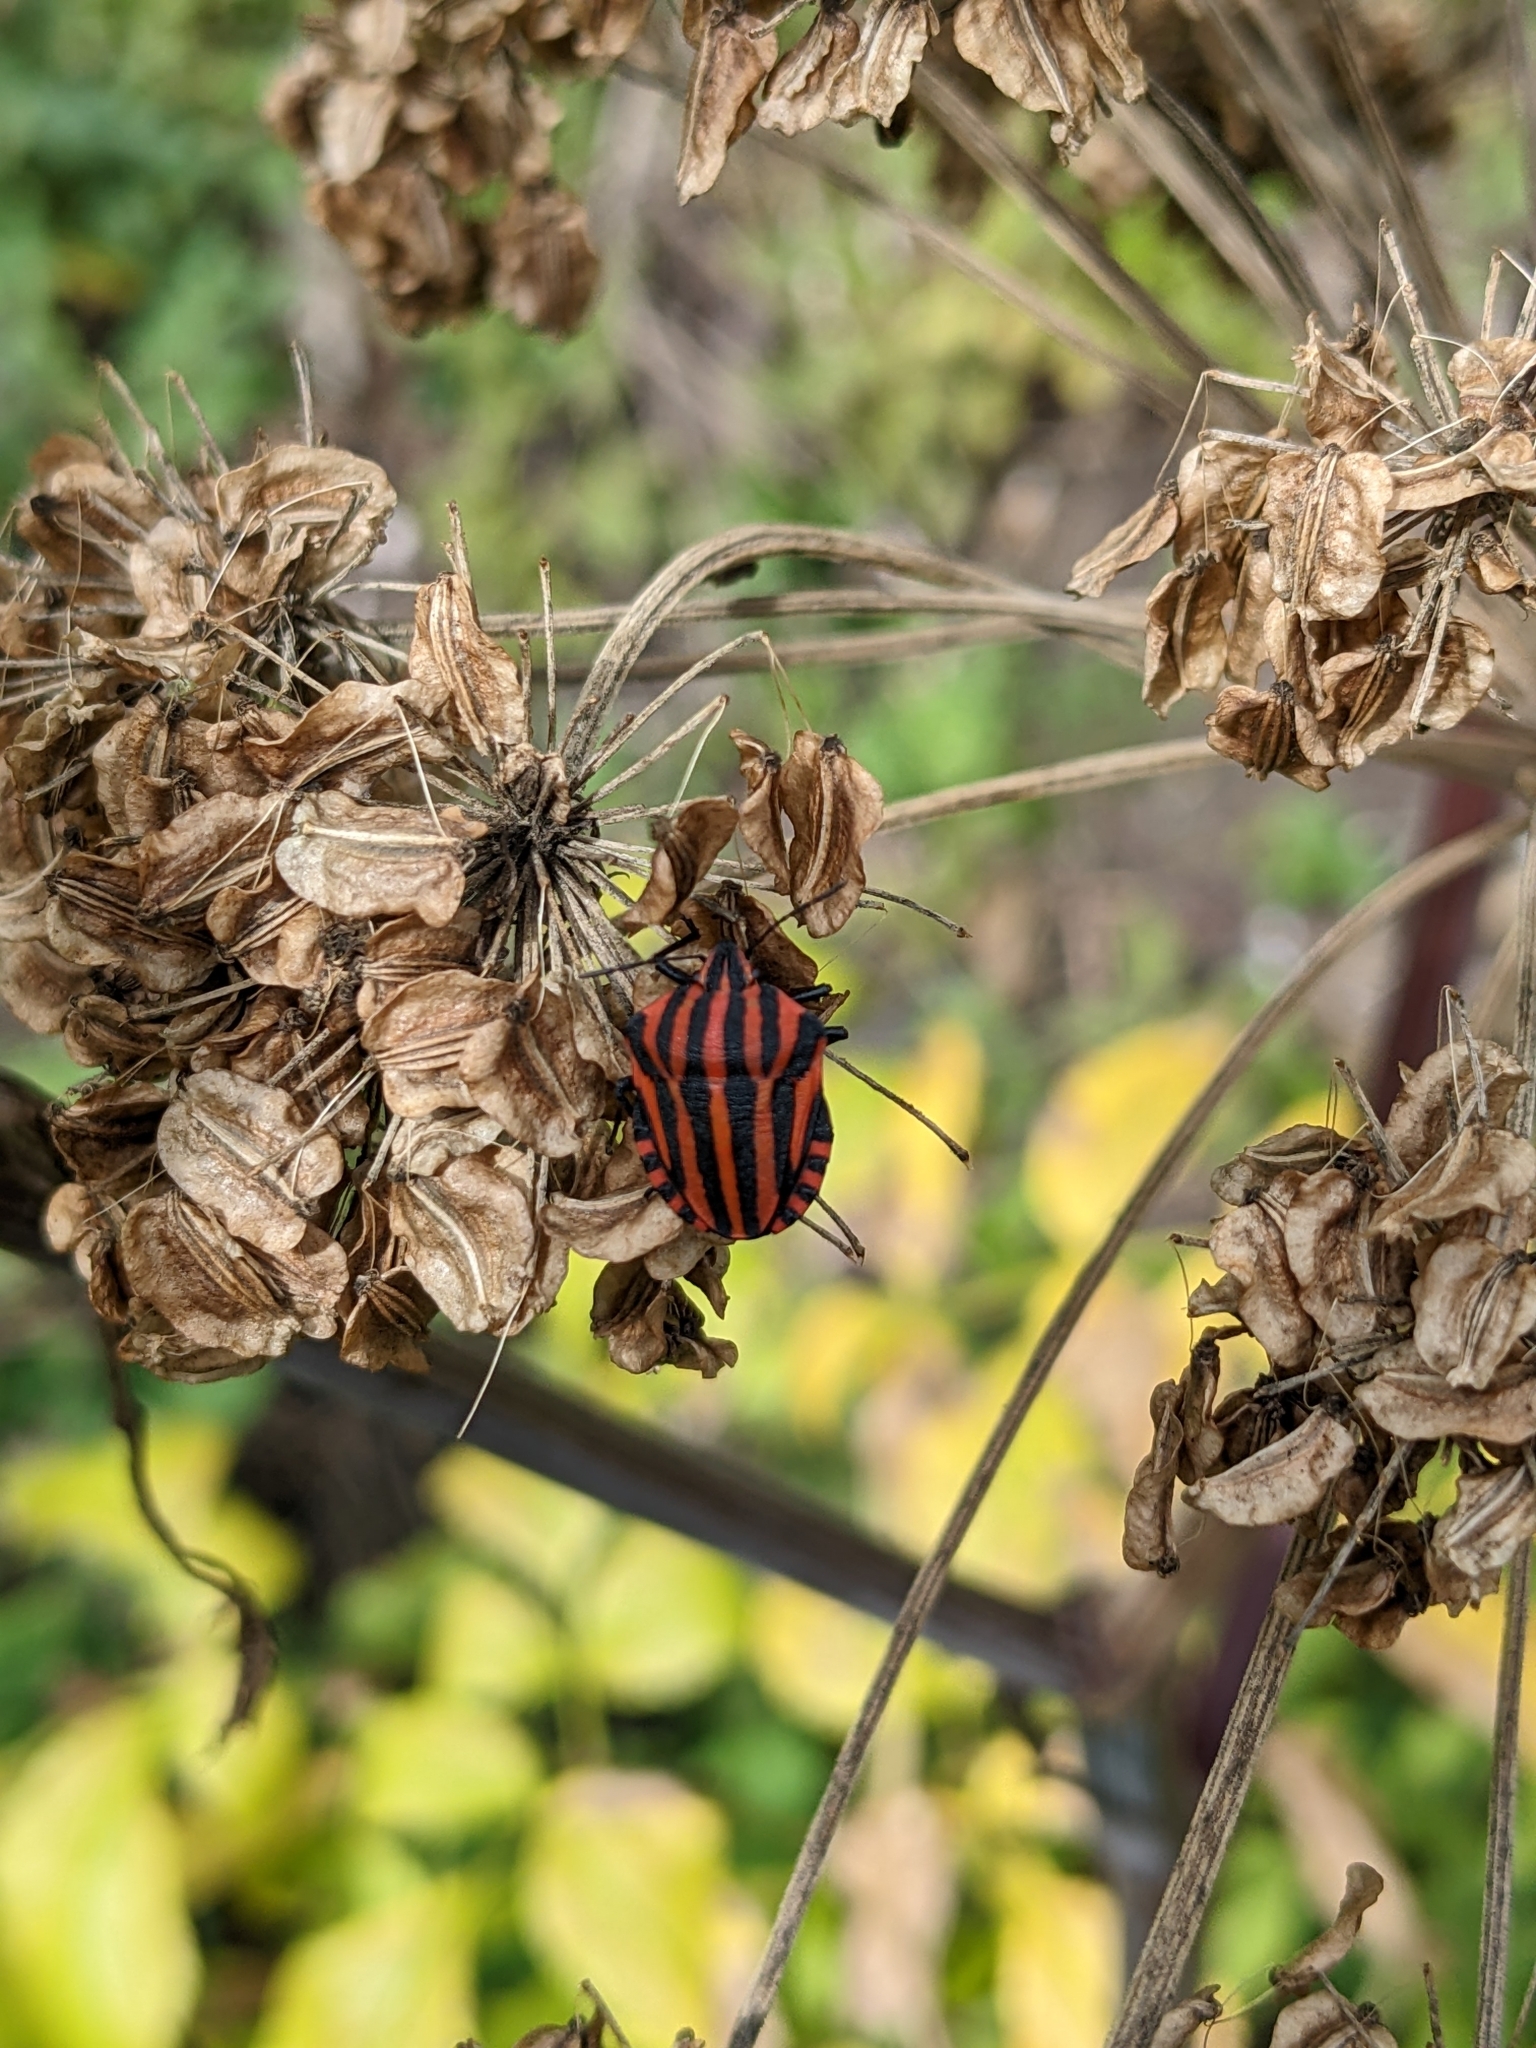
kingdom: Animalia
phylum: Arthropoda
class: Insecta
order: Hemiptera
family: Pentatomidae
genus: Graphosoma
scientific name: Graphosoma italicum
